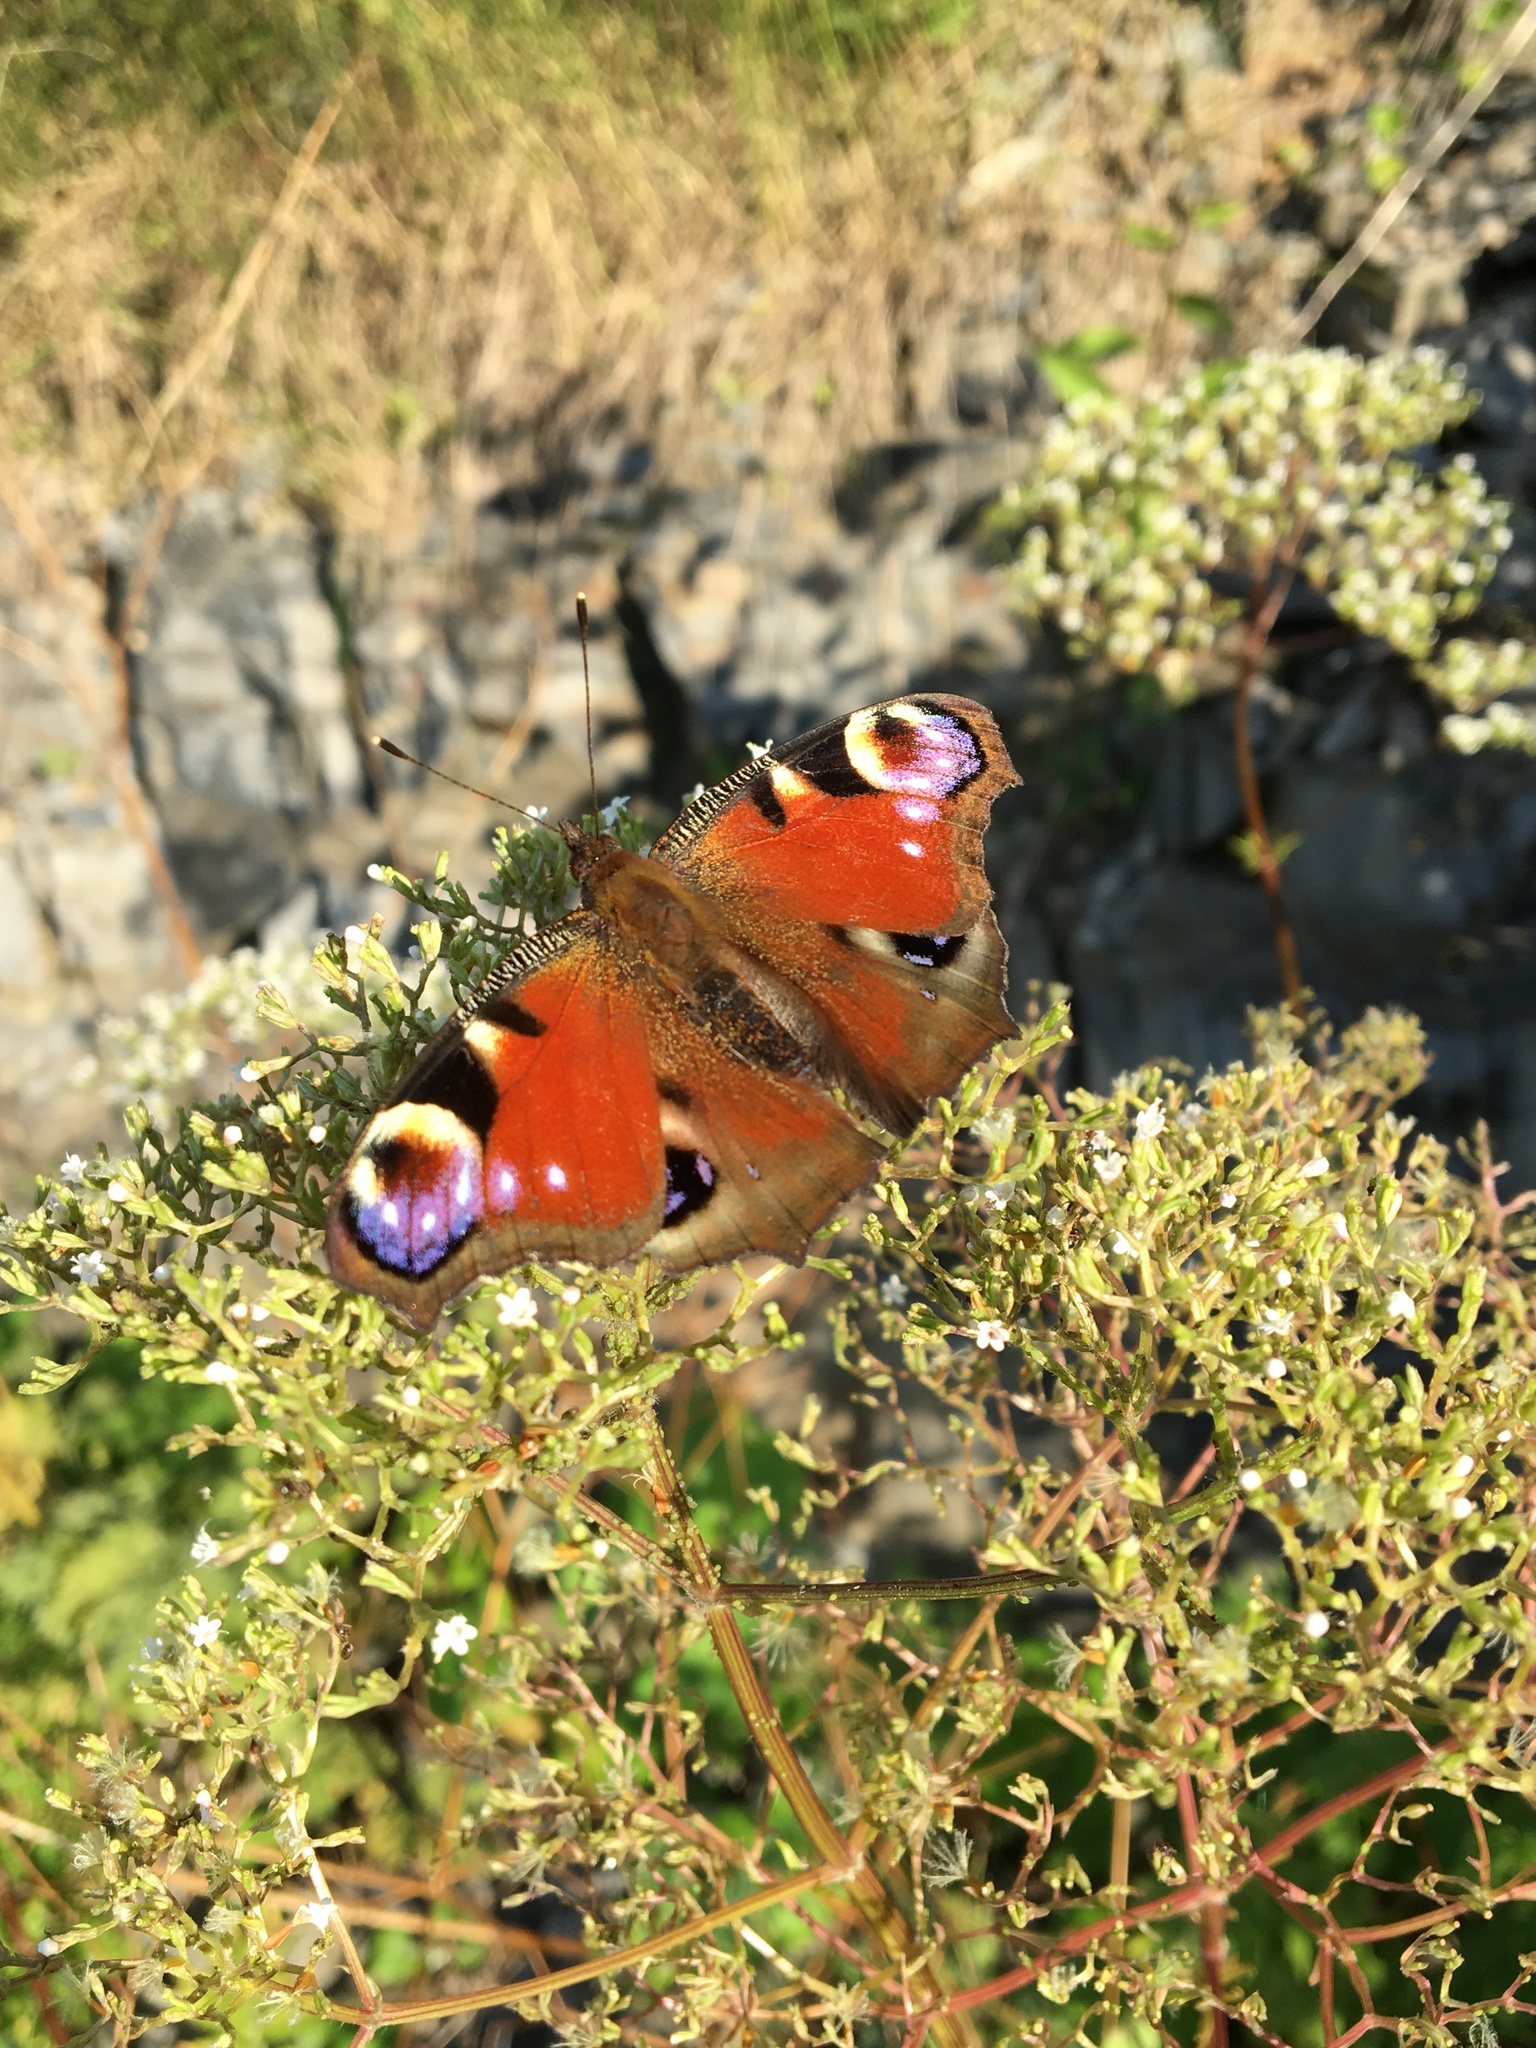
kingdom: Animalia
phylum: Arthropoda
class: Insecta
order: Lepidoptera
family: Nymphalidae
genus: Aglais
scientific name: Aglais io
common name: Peacock
